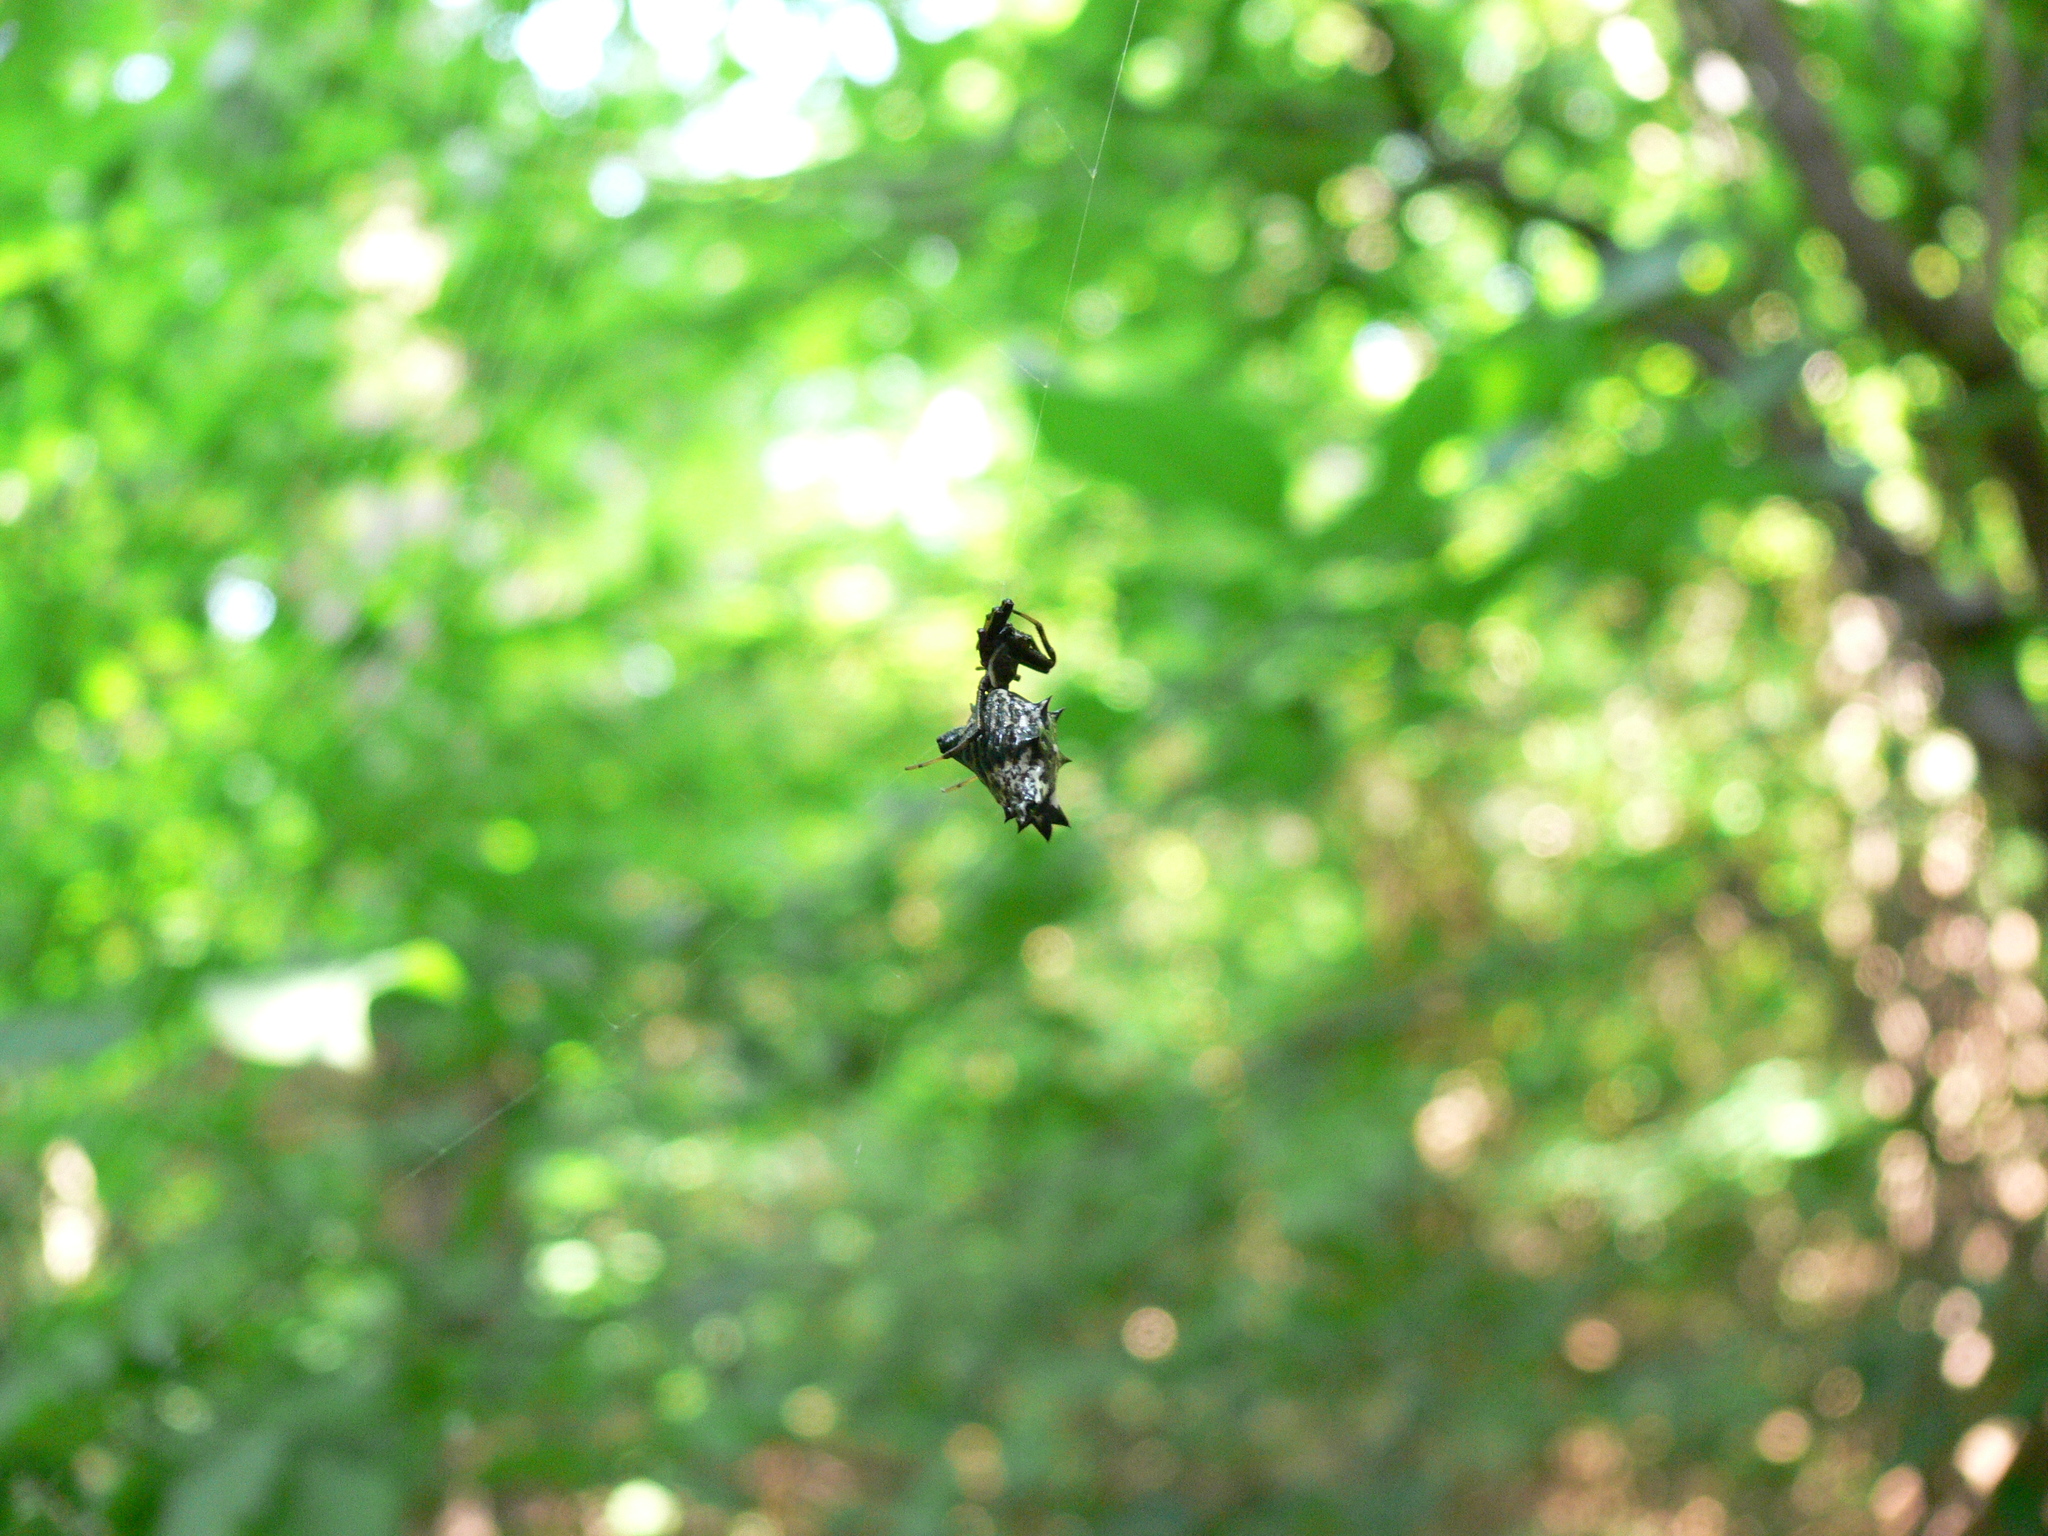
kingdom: Animalia
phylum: Arthropoda
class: Arachnida
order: Araneae
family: Araneidae
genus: Micrathena
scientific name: Micrathena gracilis
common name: Orb weavers
